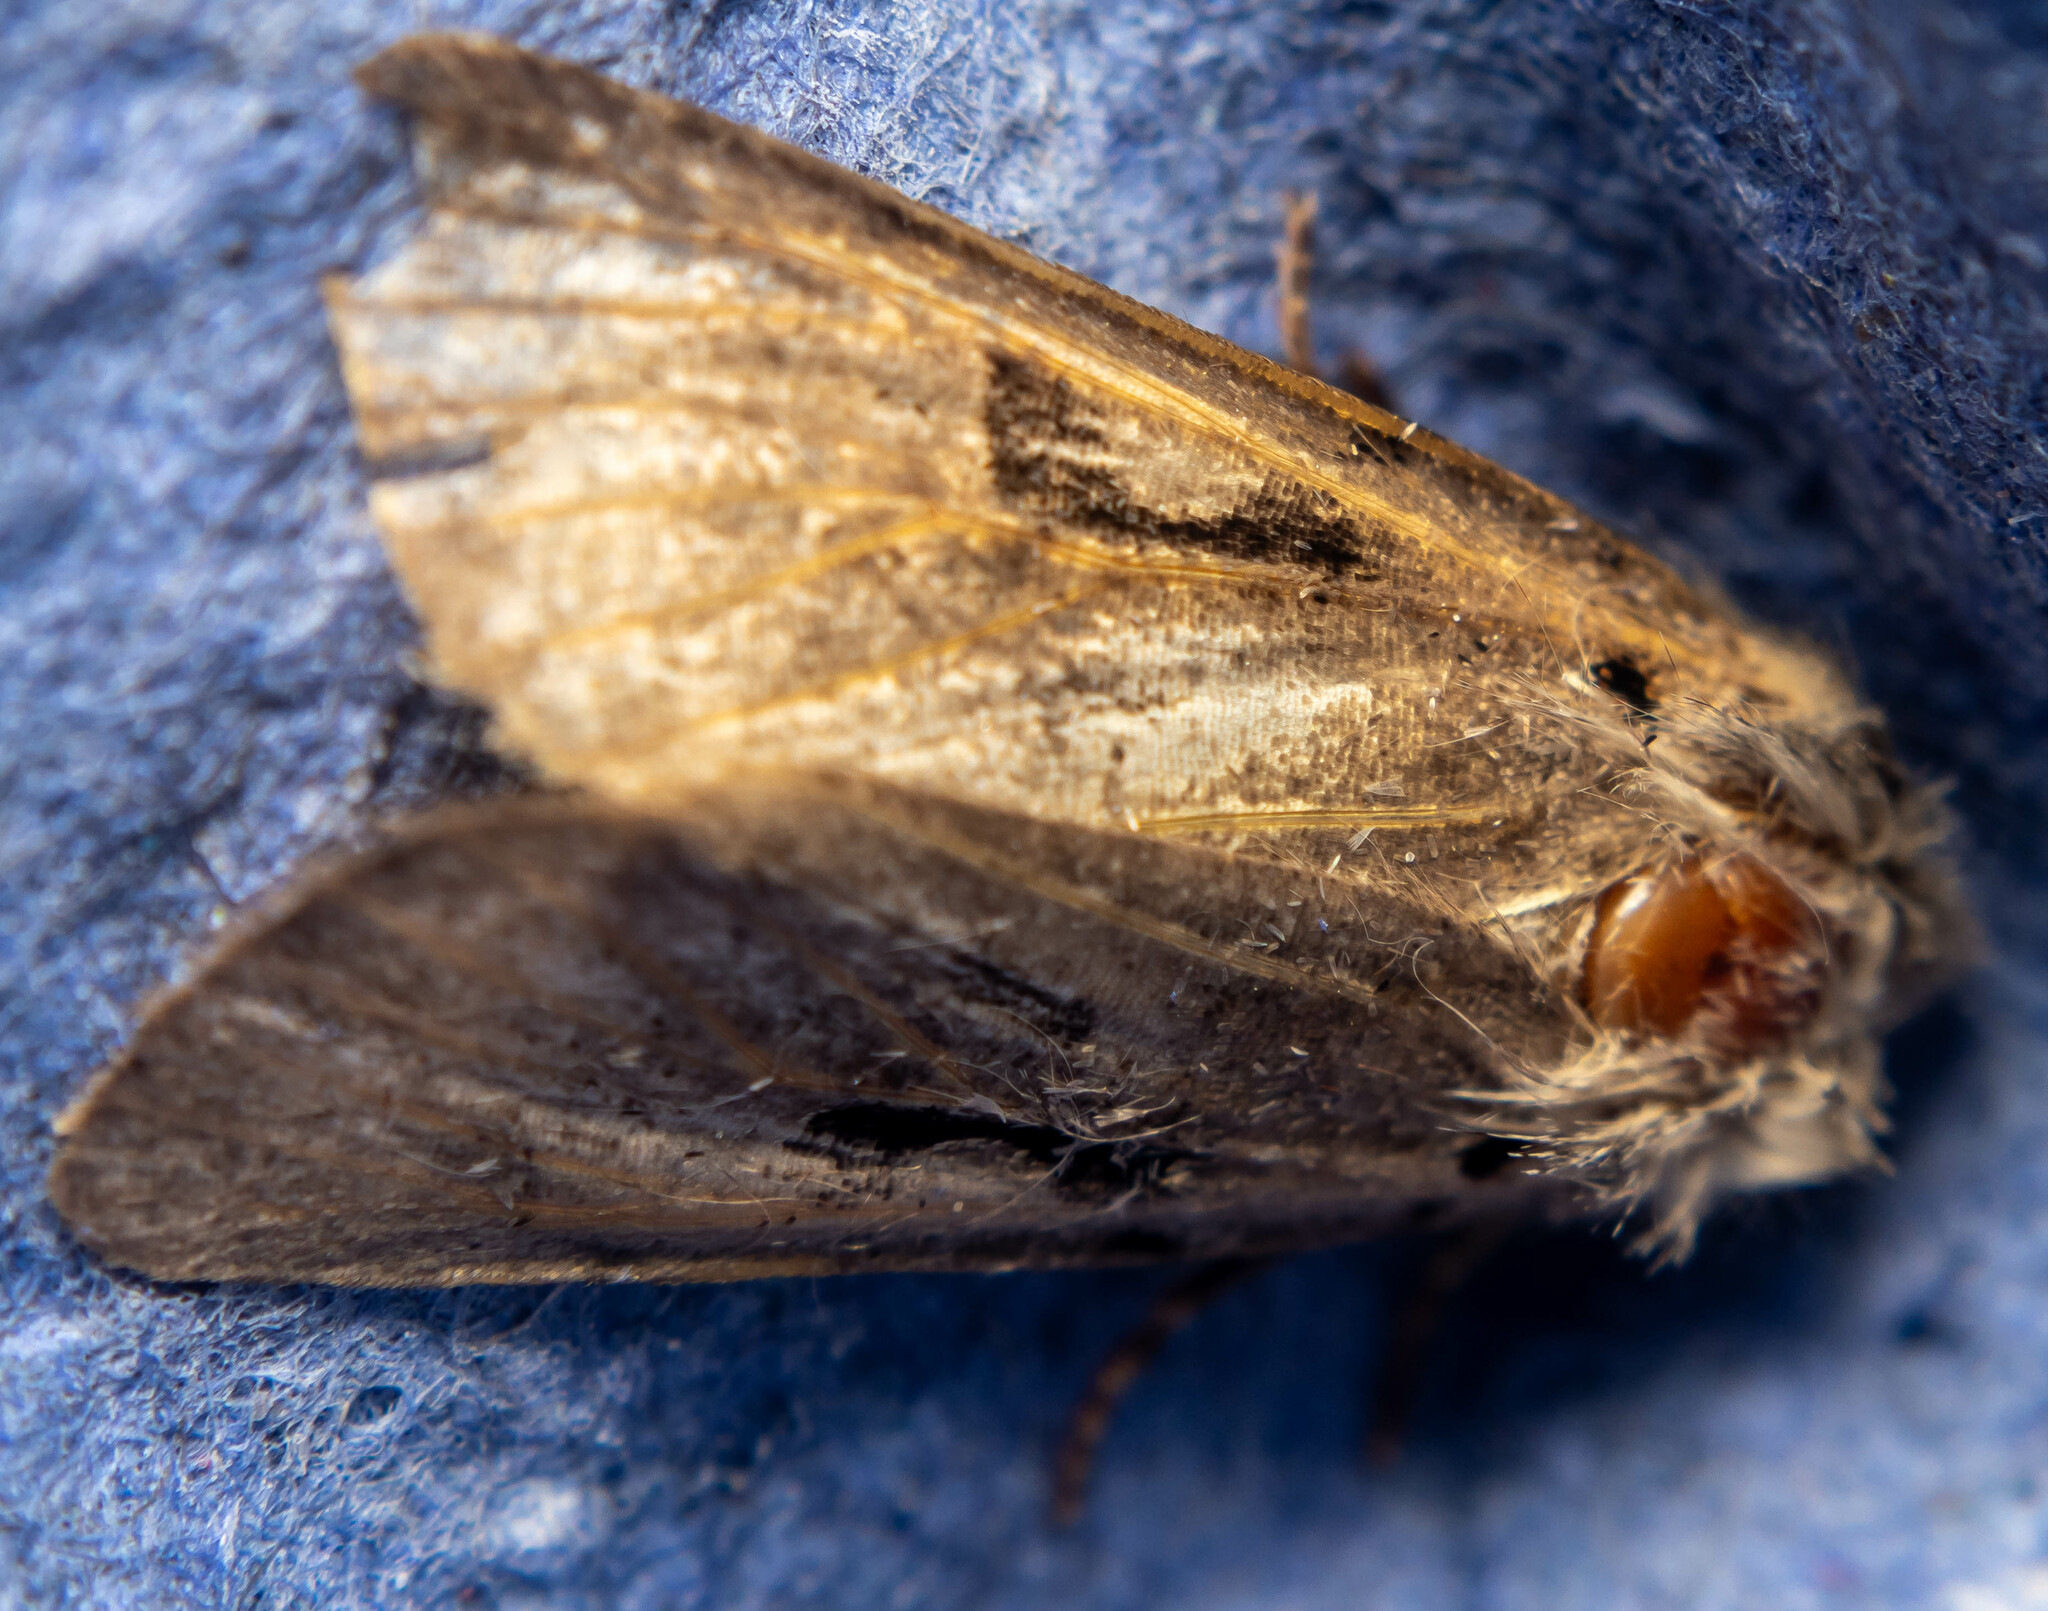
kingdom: Animalia
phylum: Arthropoda
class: Insecta
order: Lepidoptera
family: Noctuidae
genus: Orthosia
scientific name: Orthosia gothica
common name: Hebrew character
